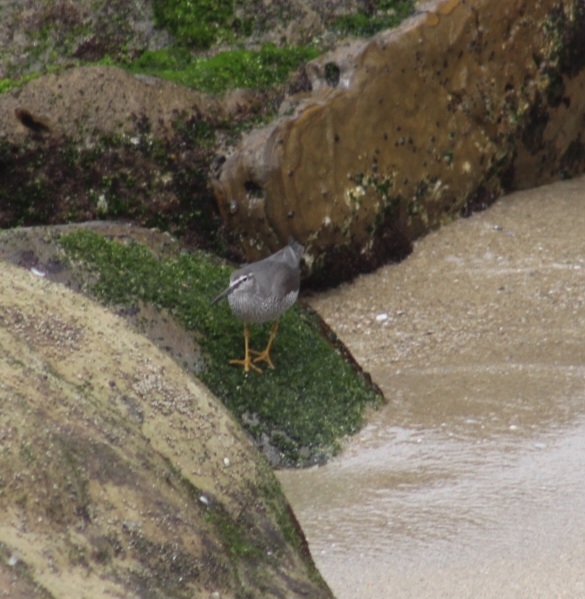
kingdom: Animalia
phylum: Chordata
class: Aves
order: Charadriiformes
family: Scolopacidae
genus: Tringa
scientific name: Tringa incana
